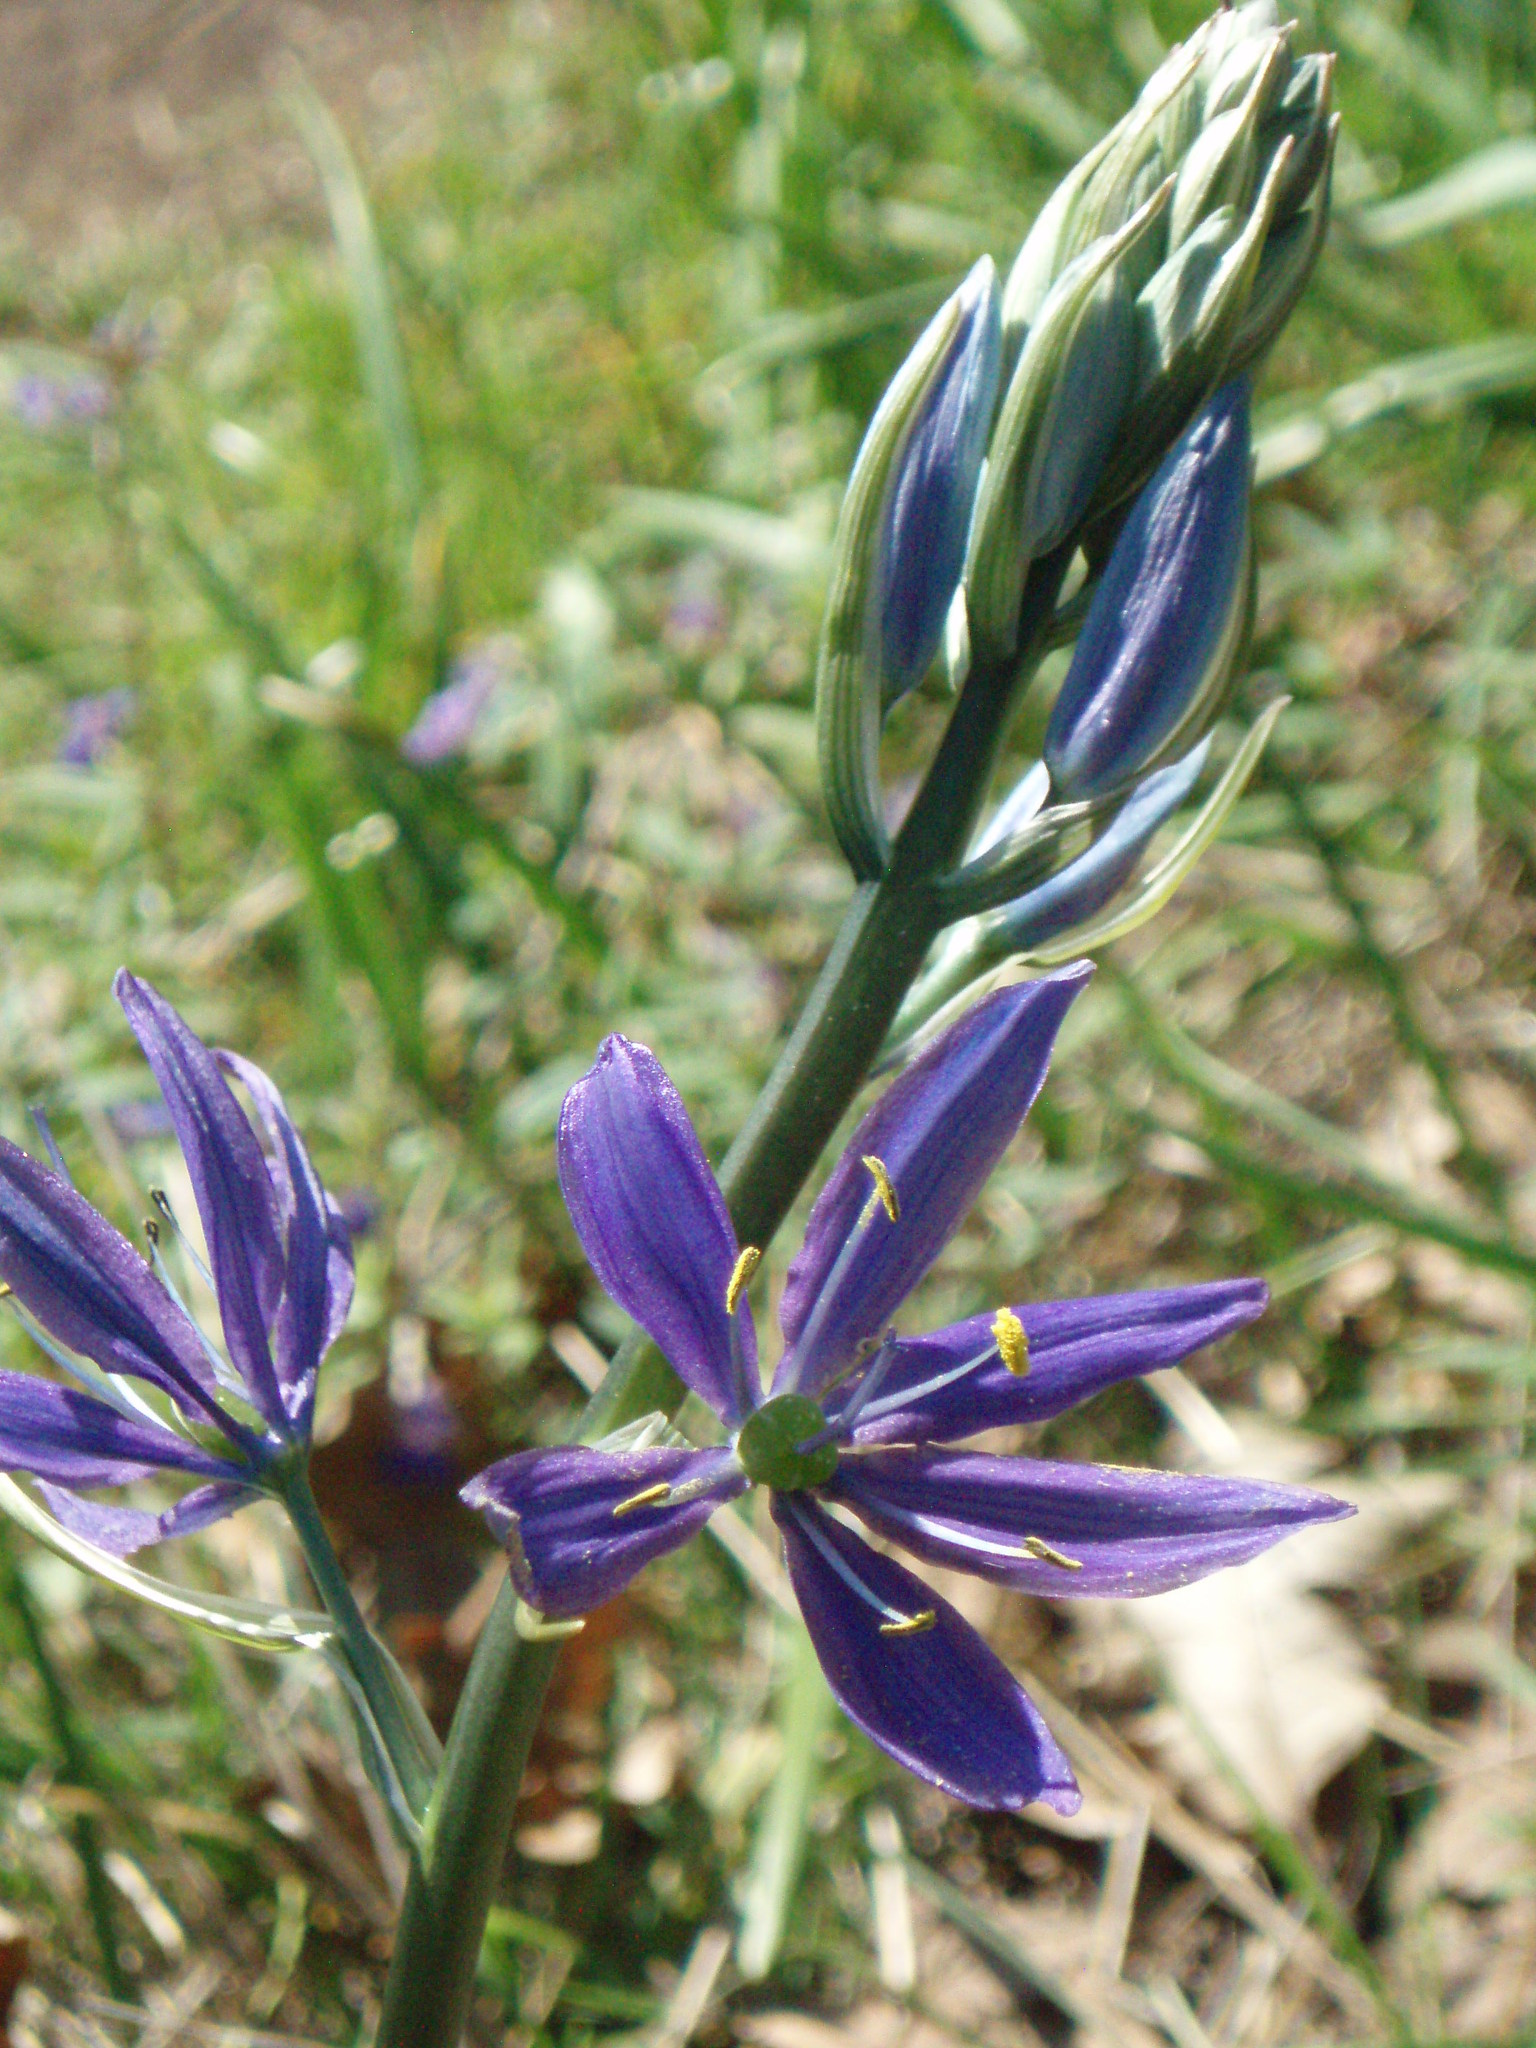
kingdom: Plantae
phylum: Tracheophyta
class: Liliopsida
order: Asparagales
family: Asparagaceae
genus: Camassia
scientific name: Camassia quamash
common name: Common camas
